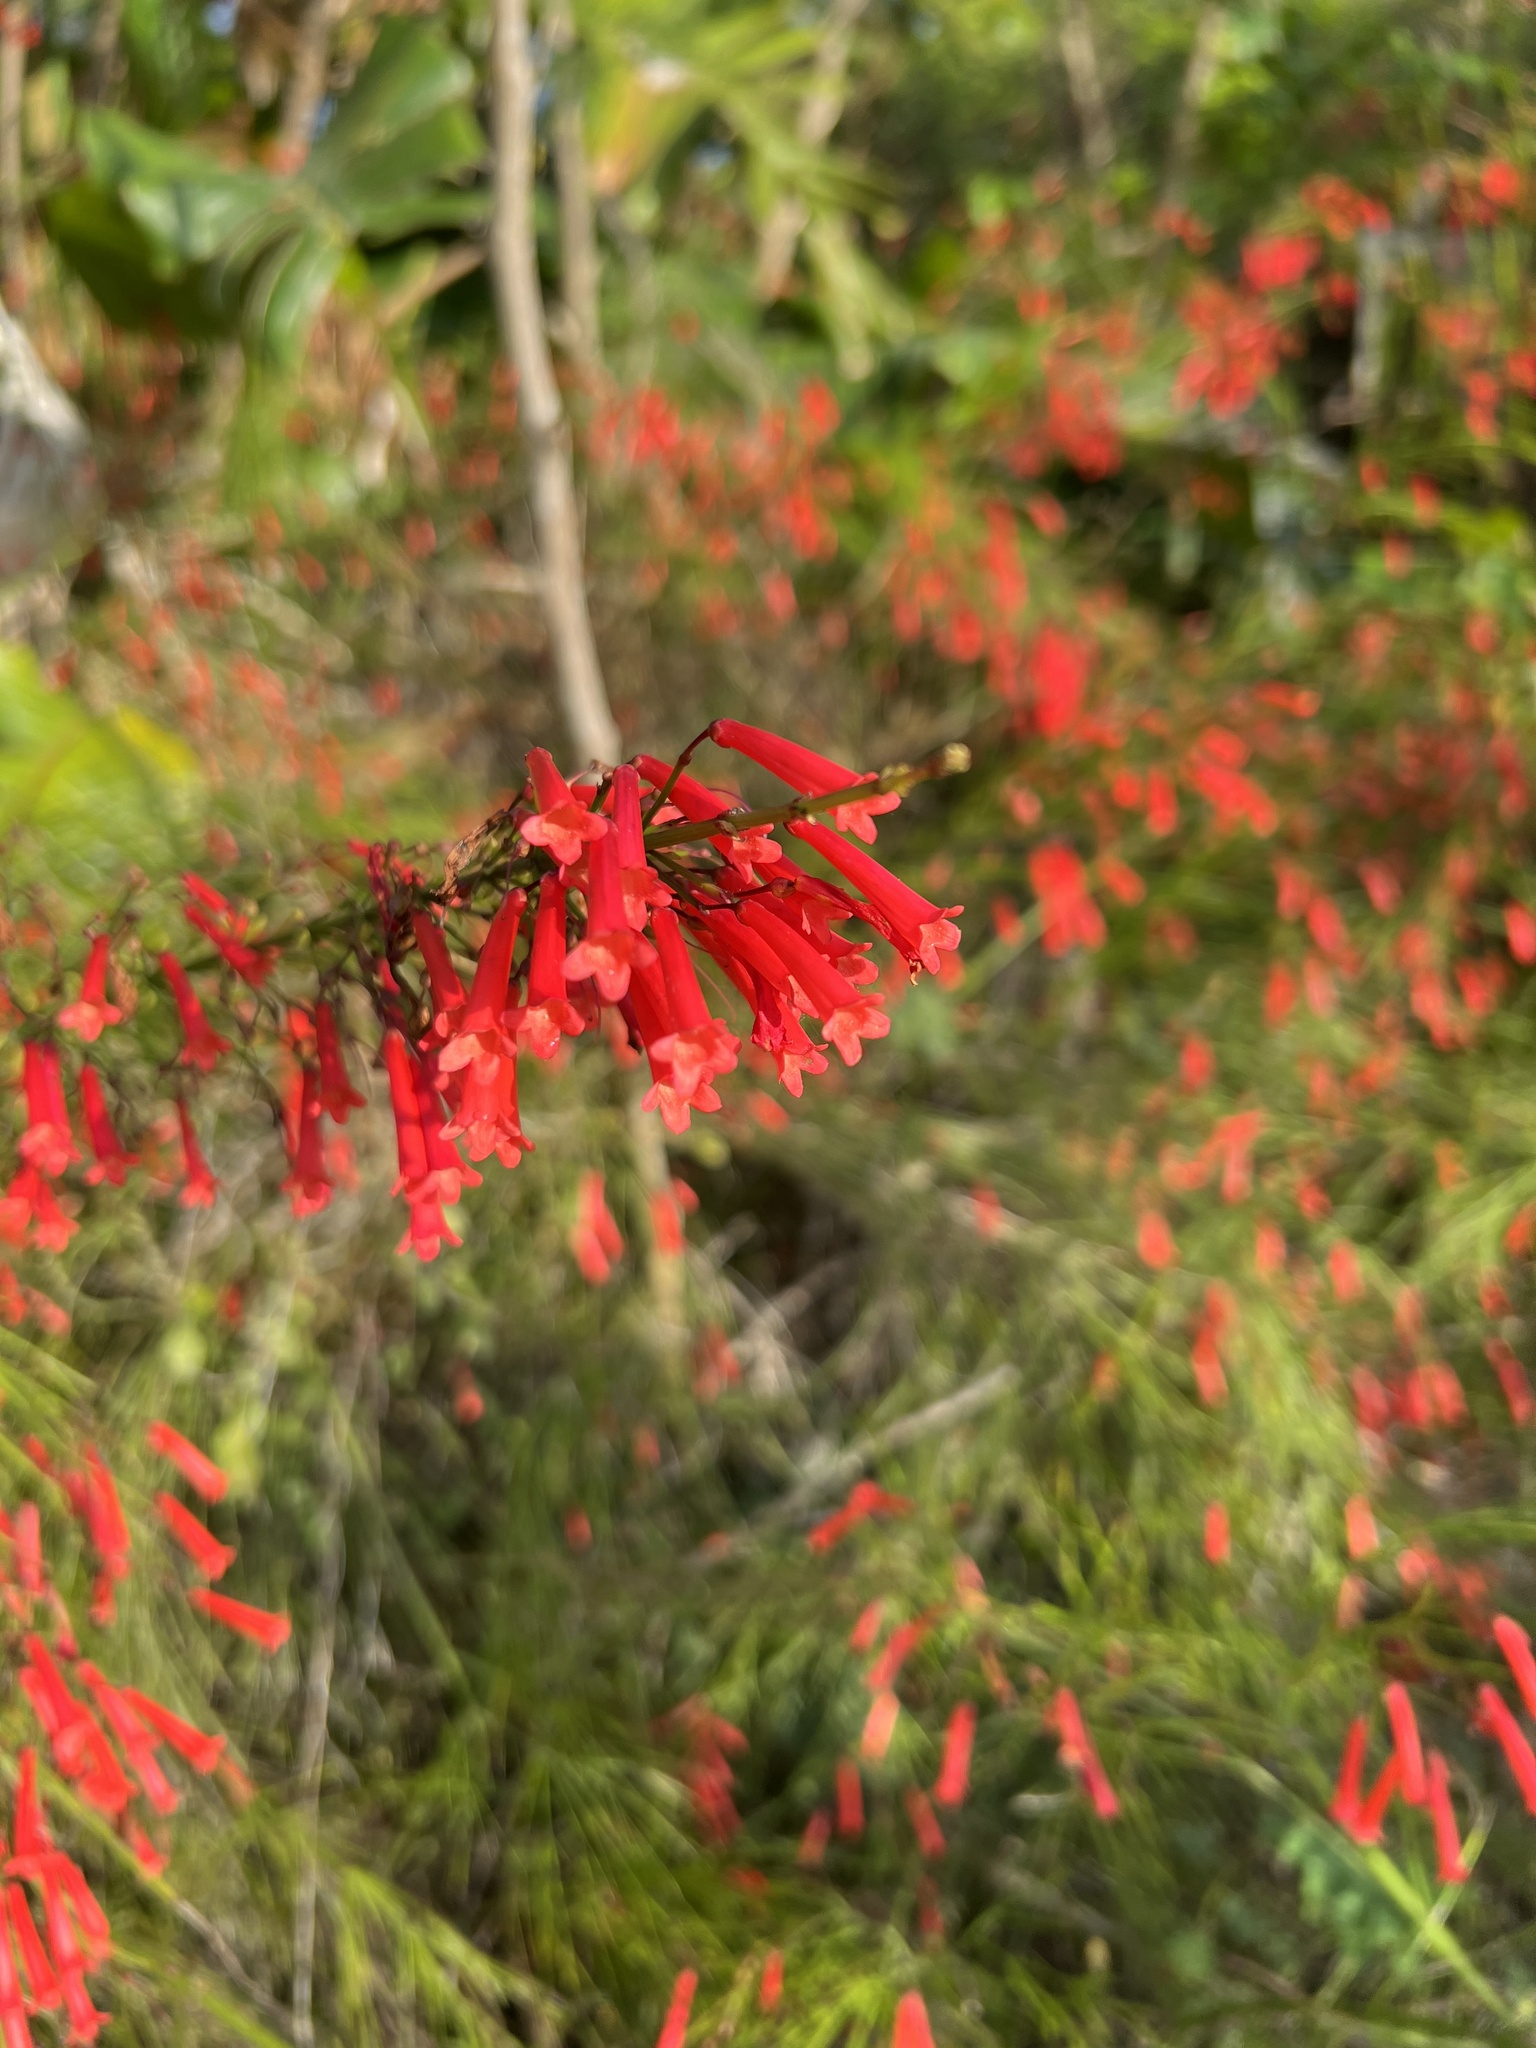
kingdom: Plantae
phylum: Tracheophyta
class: Magnoliopsida
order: Lamiales
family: Plantaginaceae
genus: Russelia
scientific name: Russelia equisetiformis
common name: Fountainbush
